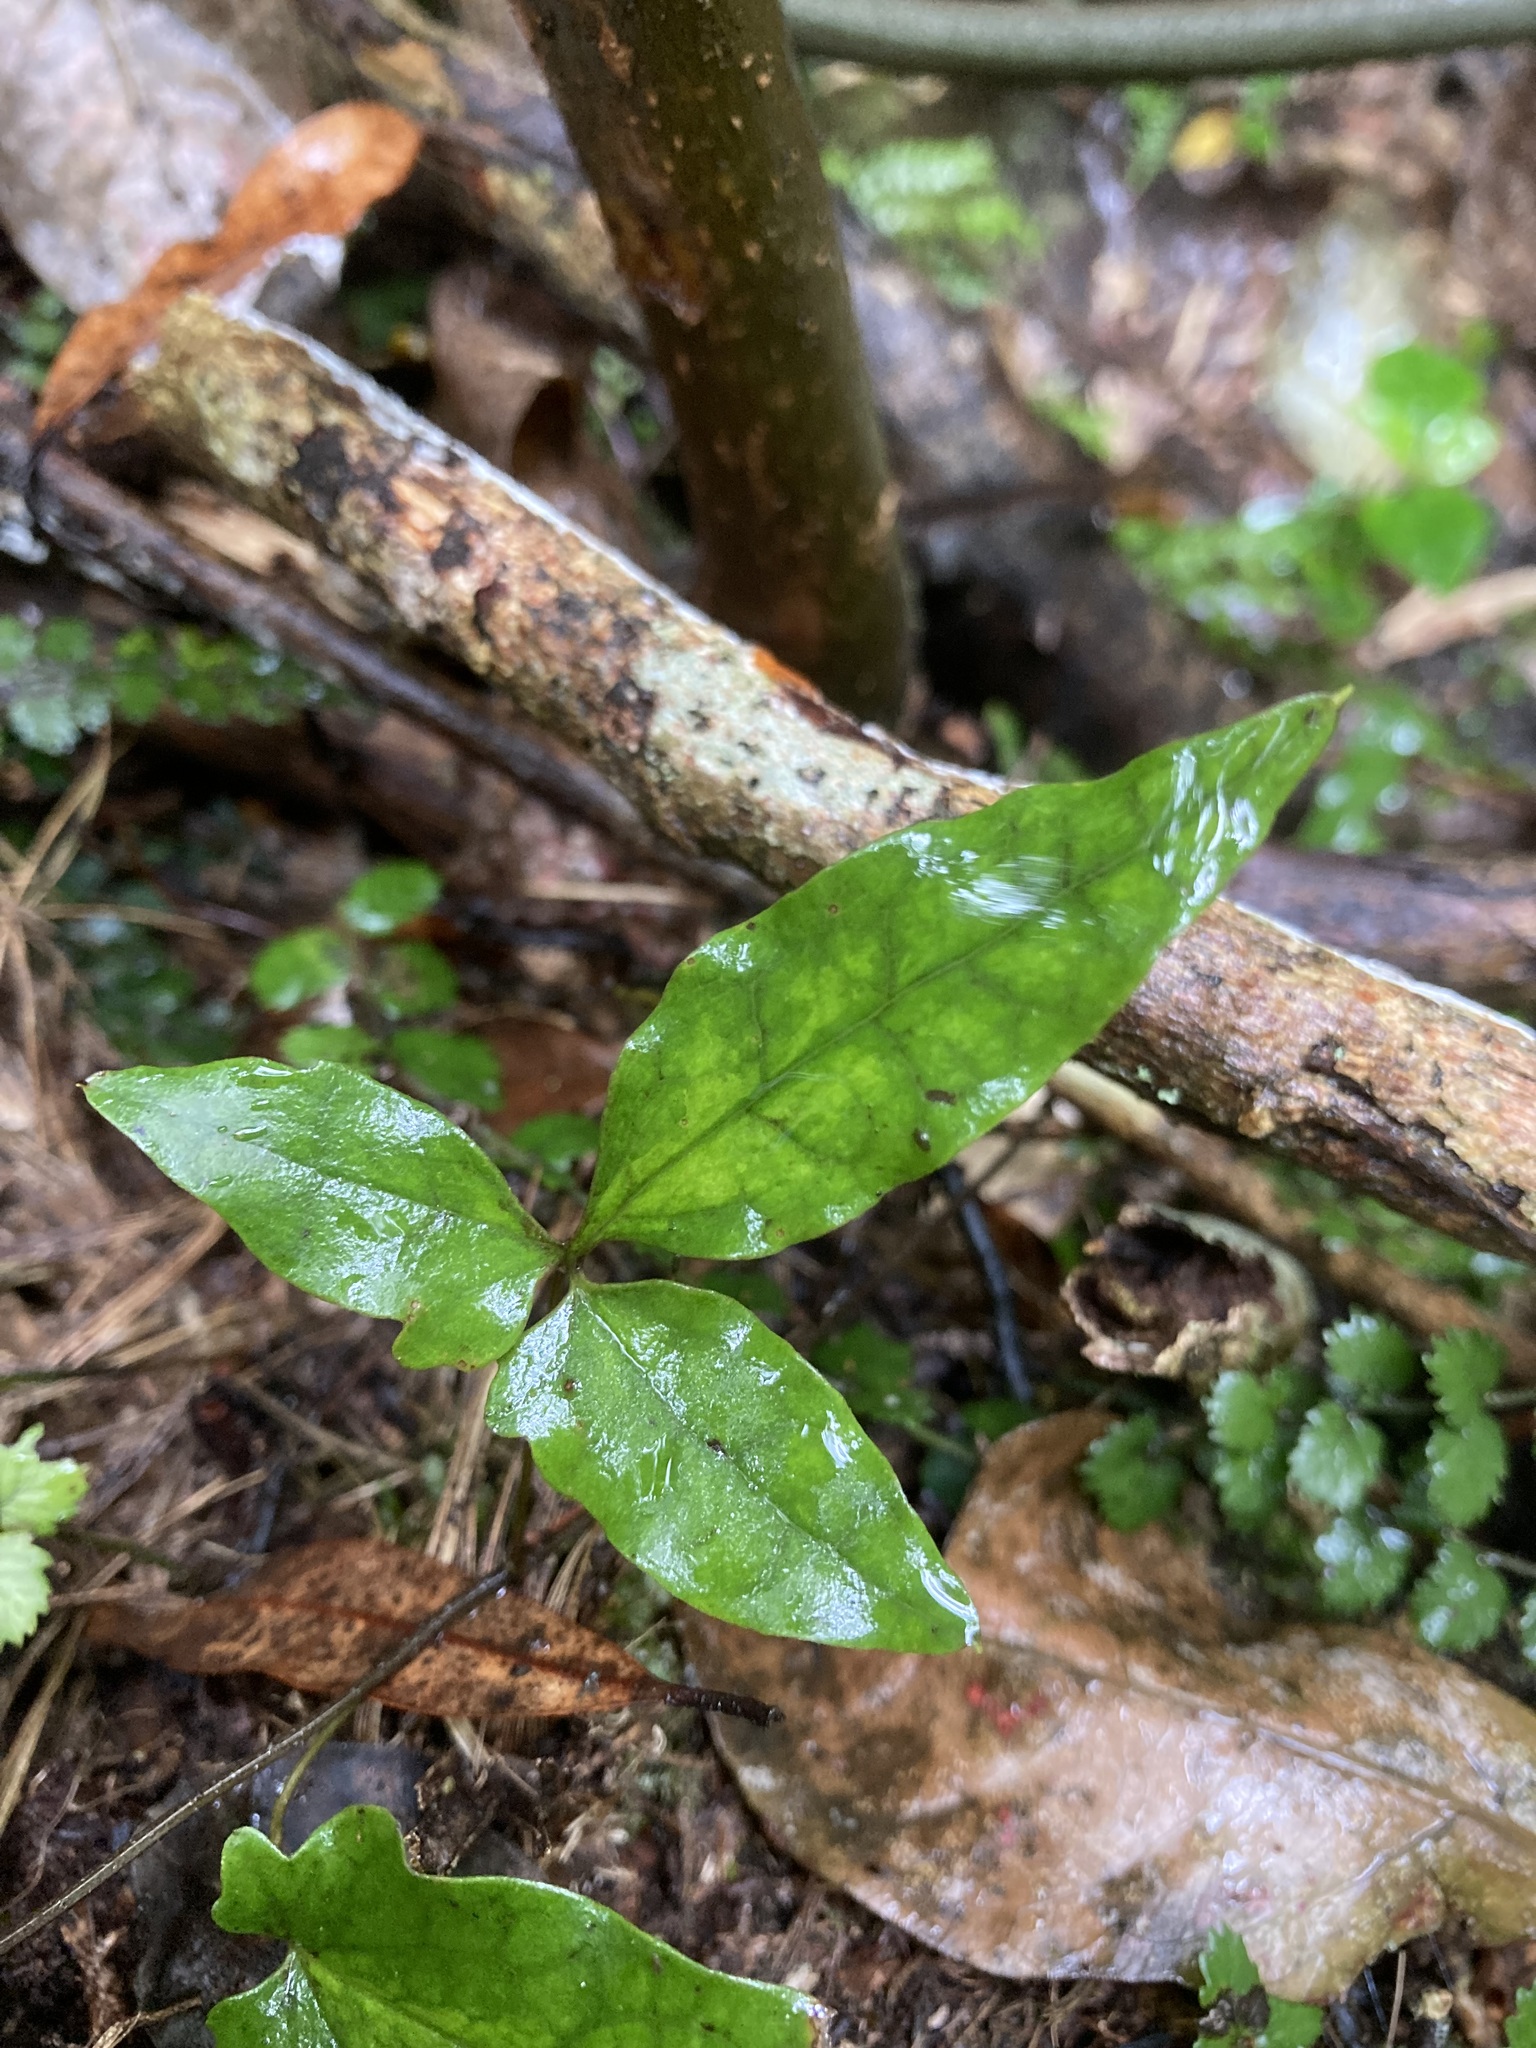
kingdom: Plantae
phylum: Tracheophyta
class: Magnoliopsida
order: Ranunculales
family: Ranunculaceae
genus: Clematis
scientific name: Clematis paniculata
